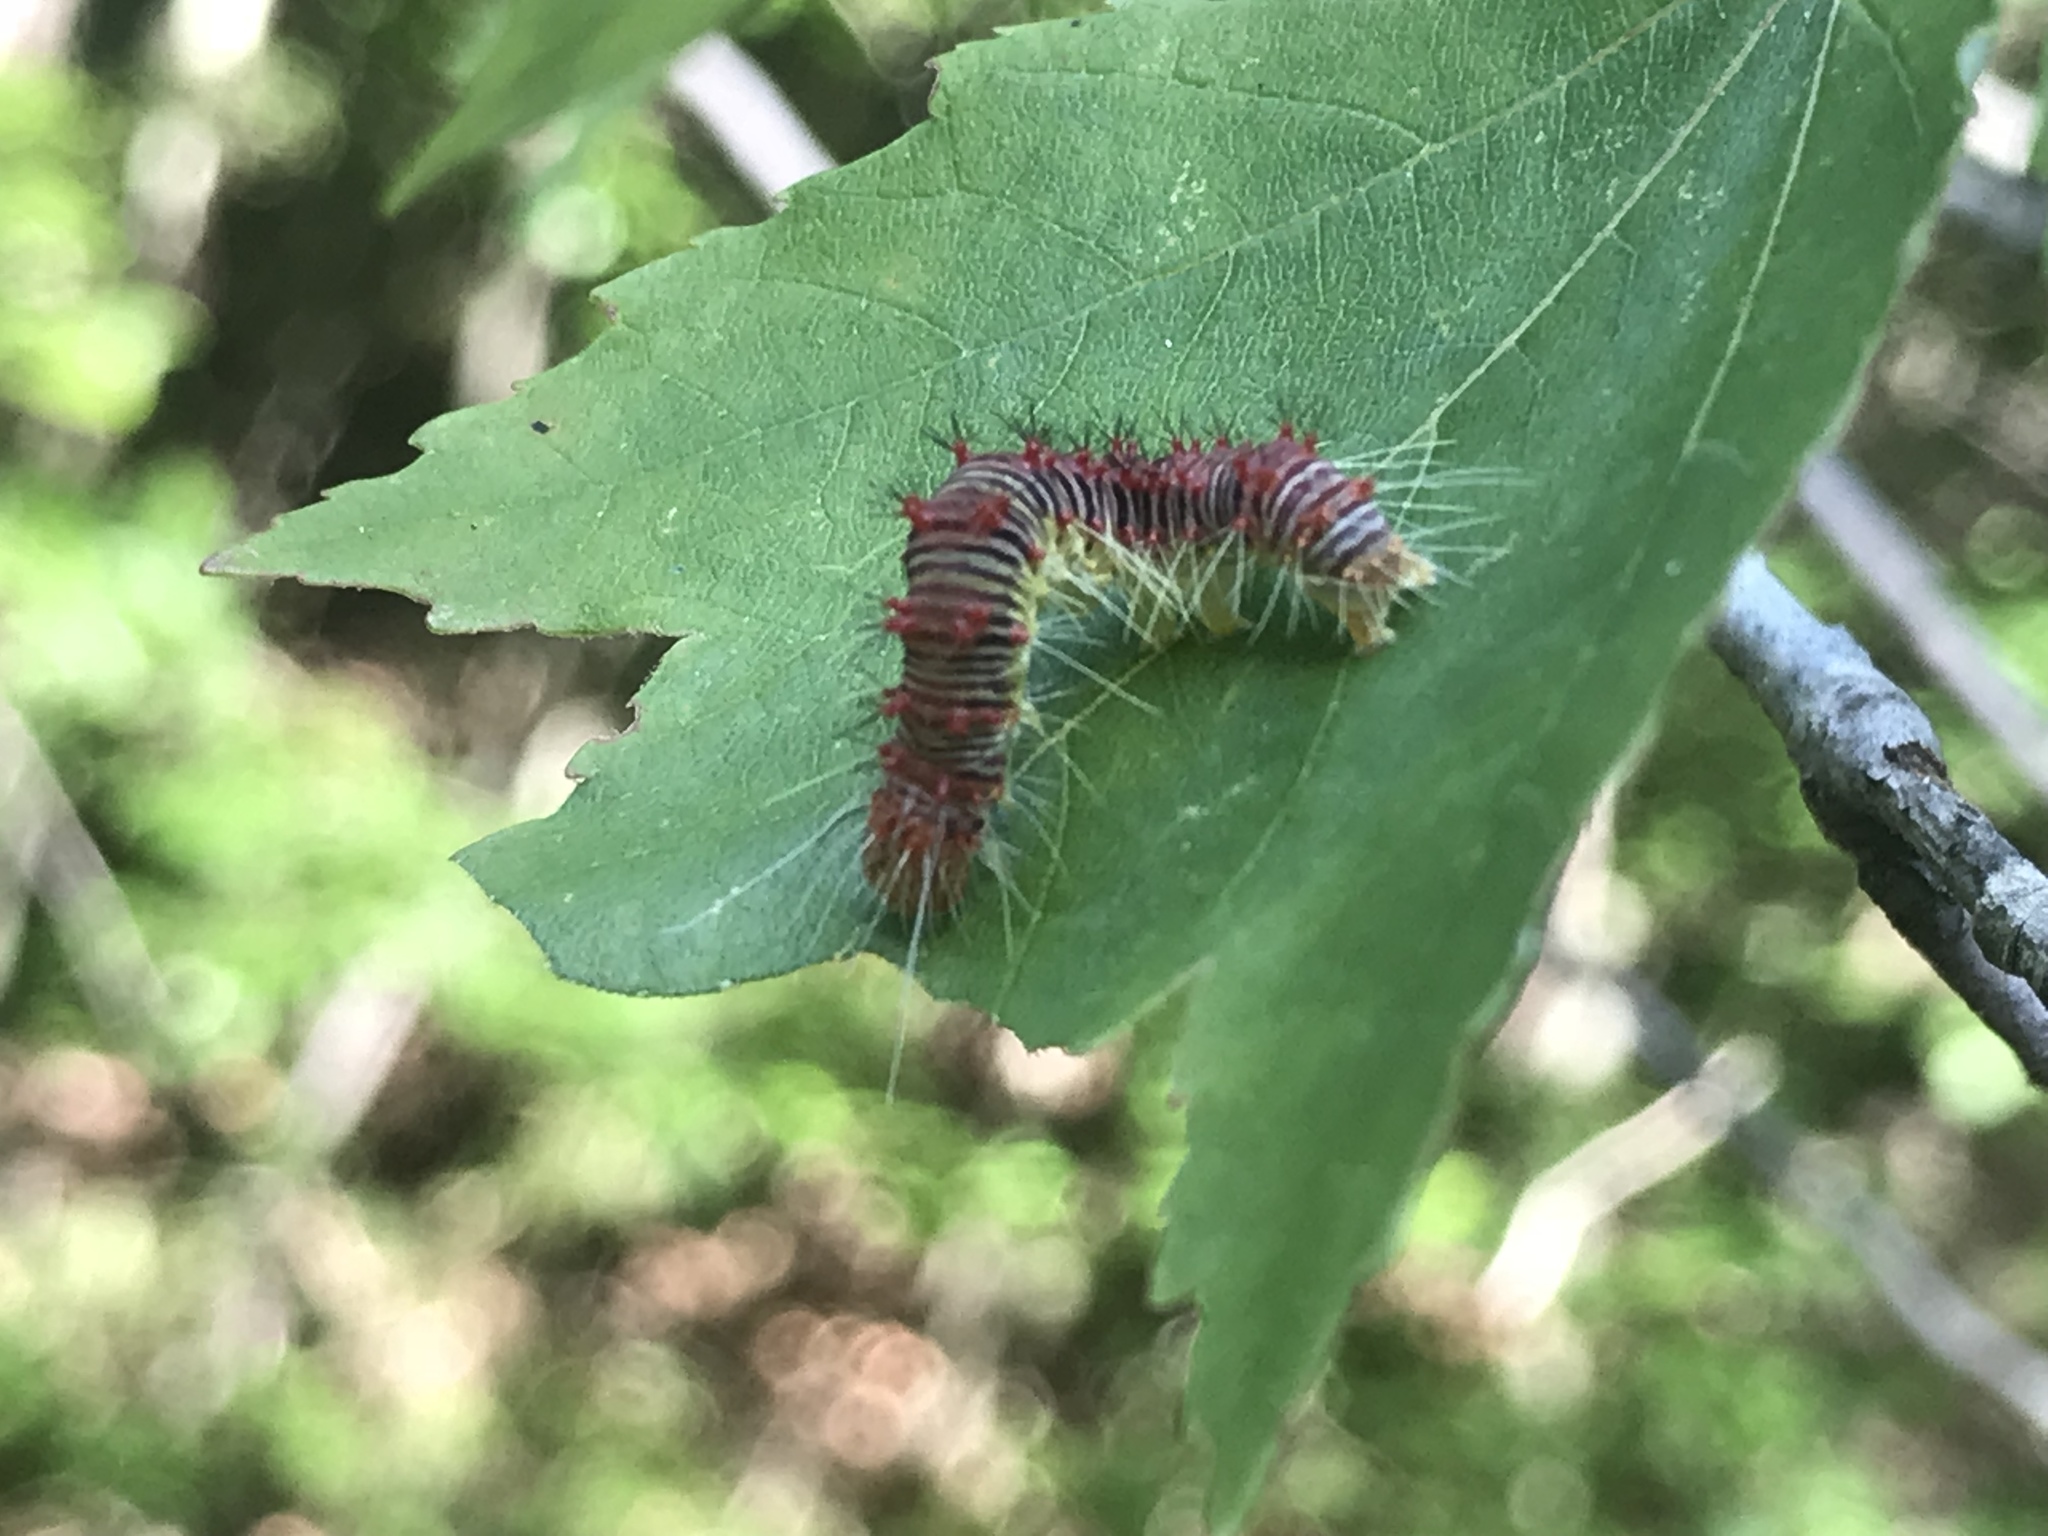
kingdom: Animalia
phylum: Arthropoda
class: Insecta
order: Lepidoptera
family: Noctuidae
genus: Acronicta
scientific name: Acronicta retardata
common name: Maple dagger
